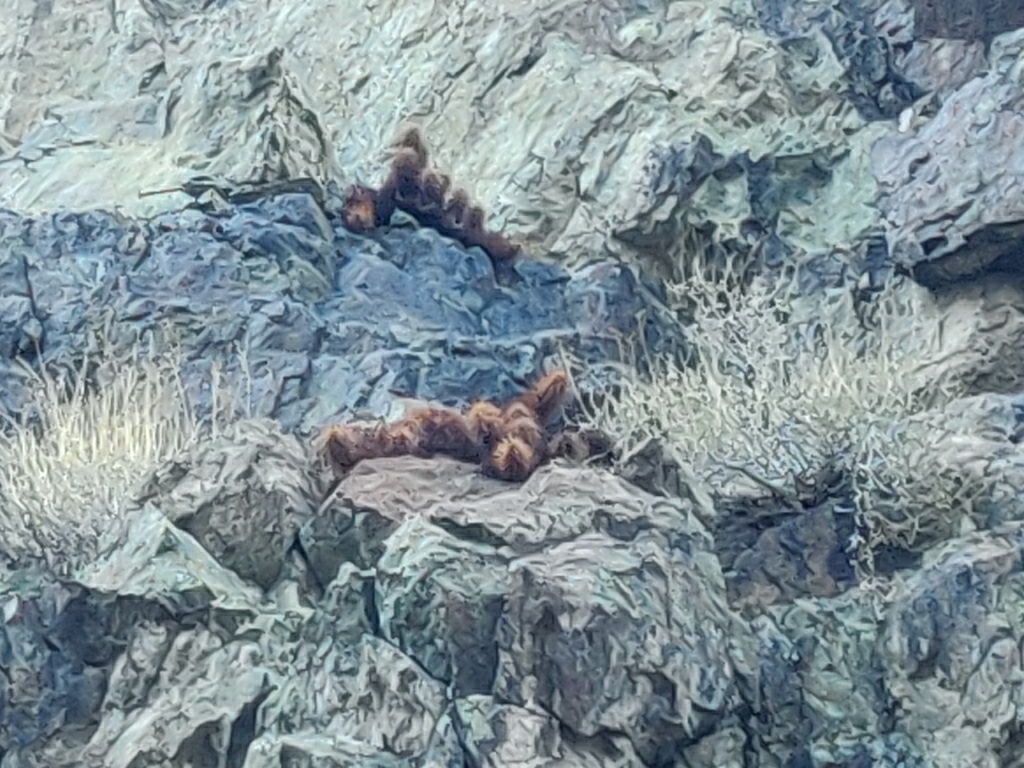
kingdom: Plantae
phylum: Tracheophyta
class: Magnoliopsida
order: Caryophyllales
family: Cactaceae
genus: Echinocereus
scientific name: Echinocereus engelmannii
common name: Engelmann's hedgehog cactus
